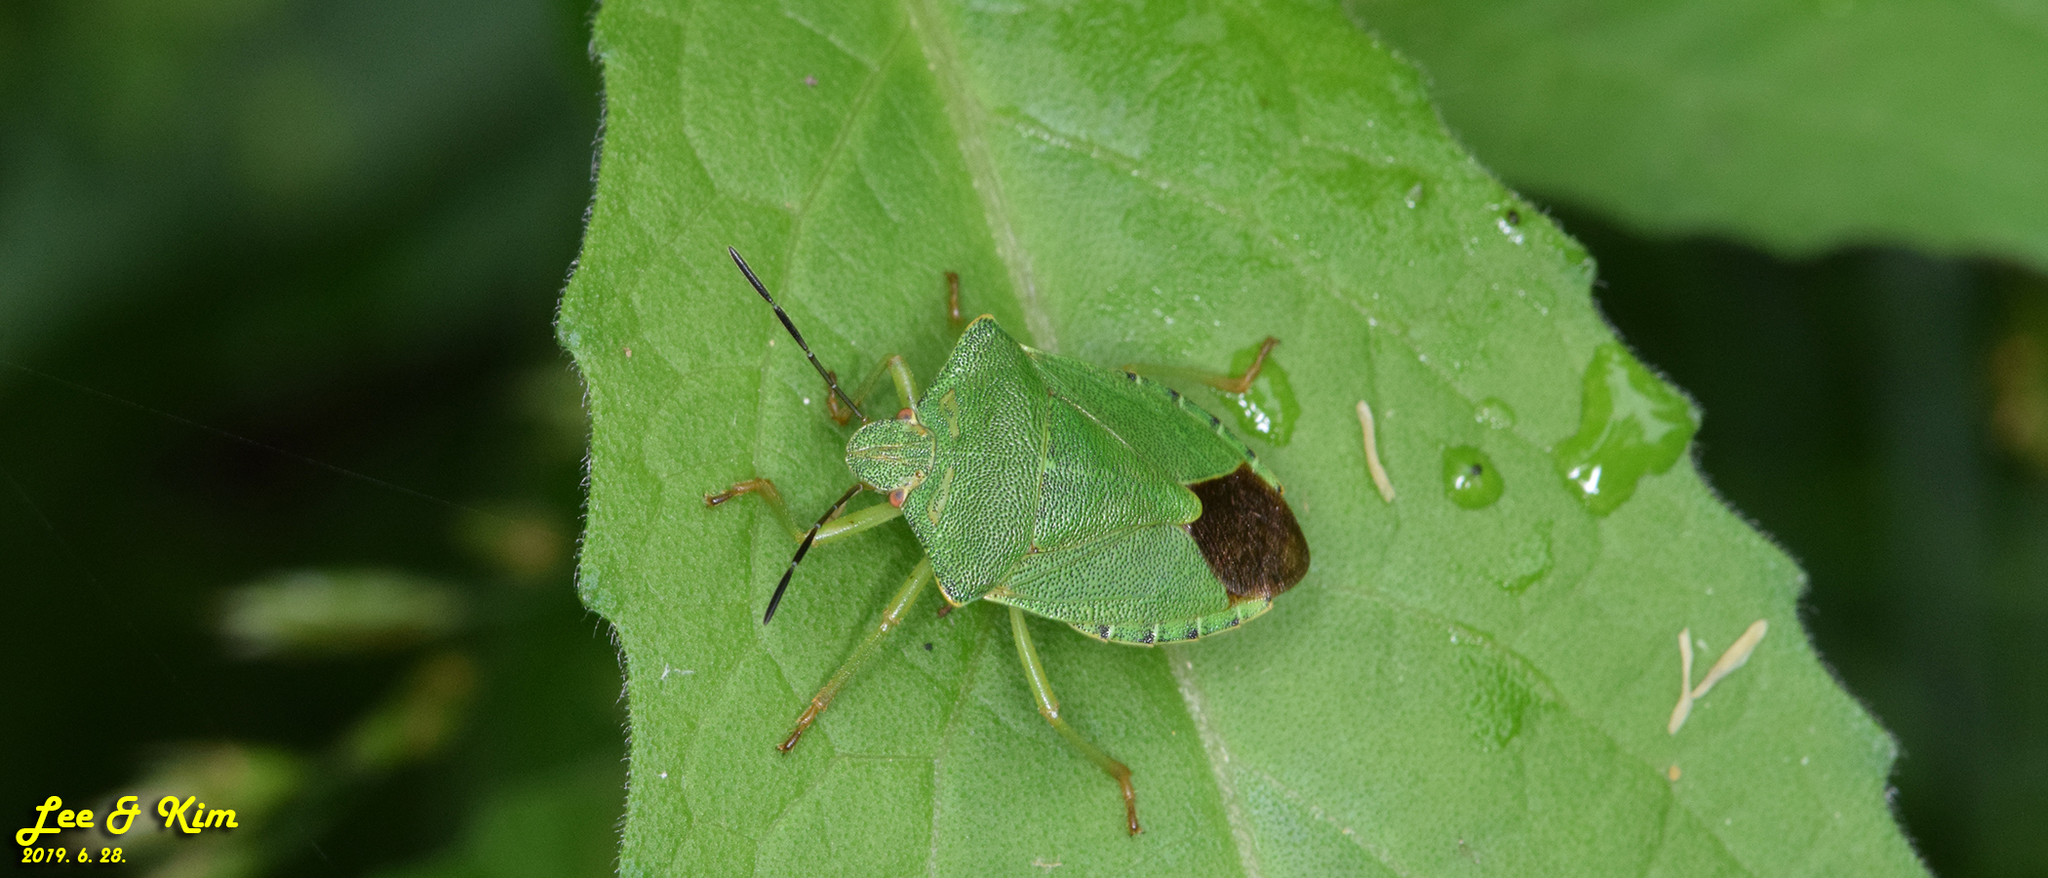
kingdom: Animalia
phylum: Arthropoda
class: Insecta
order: Hemiptera
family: Pentatomidae
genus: Palomena
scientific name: Palomena
